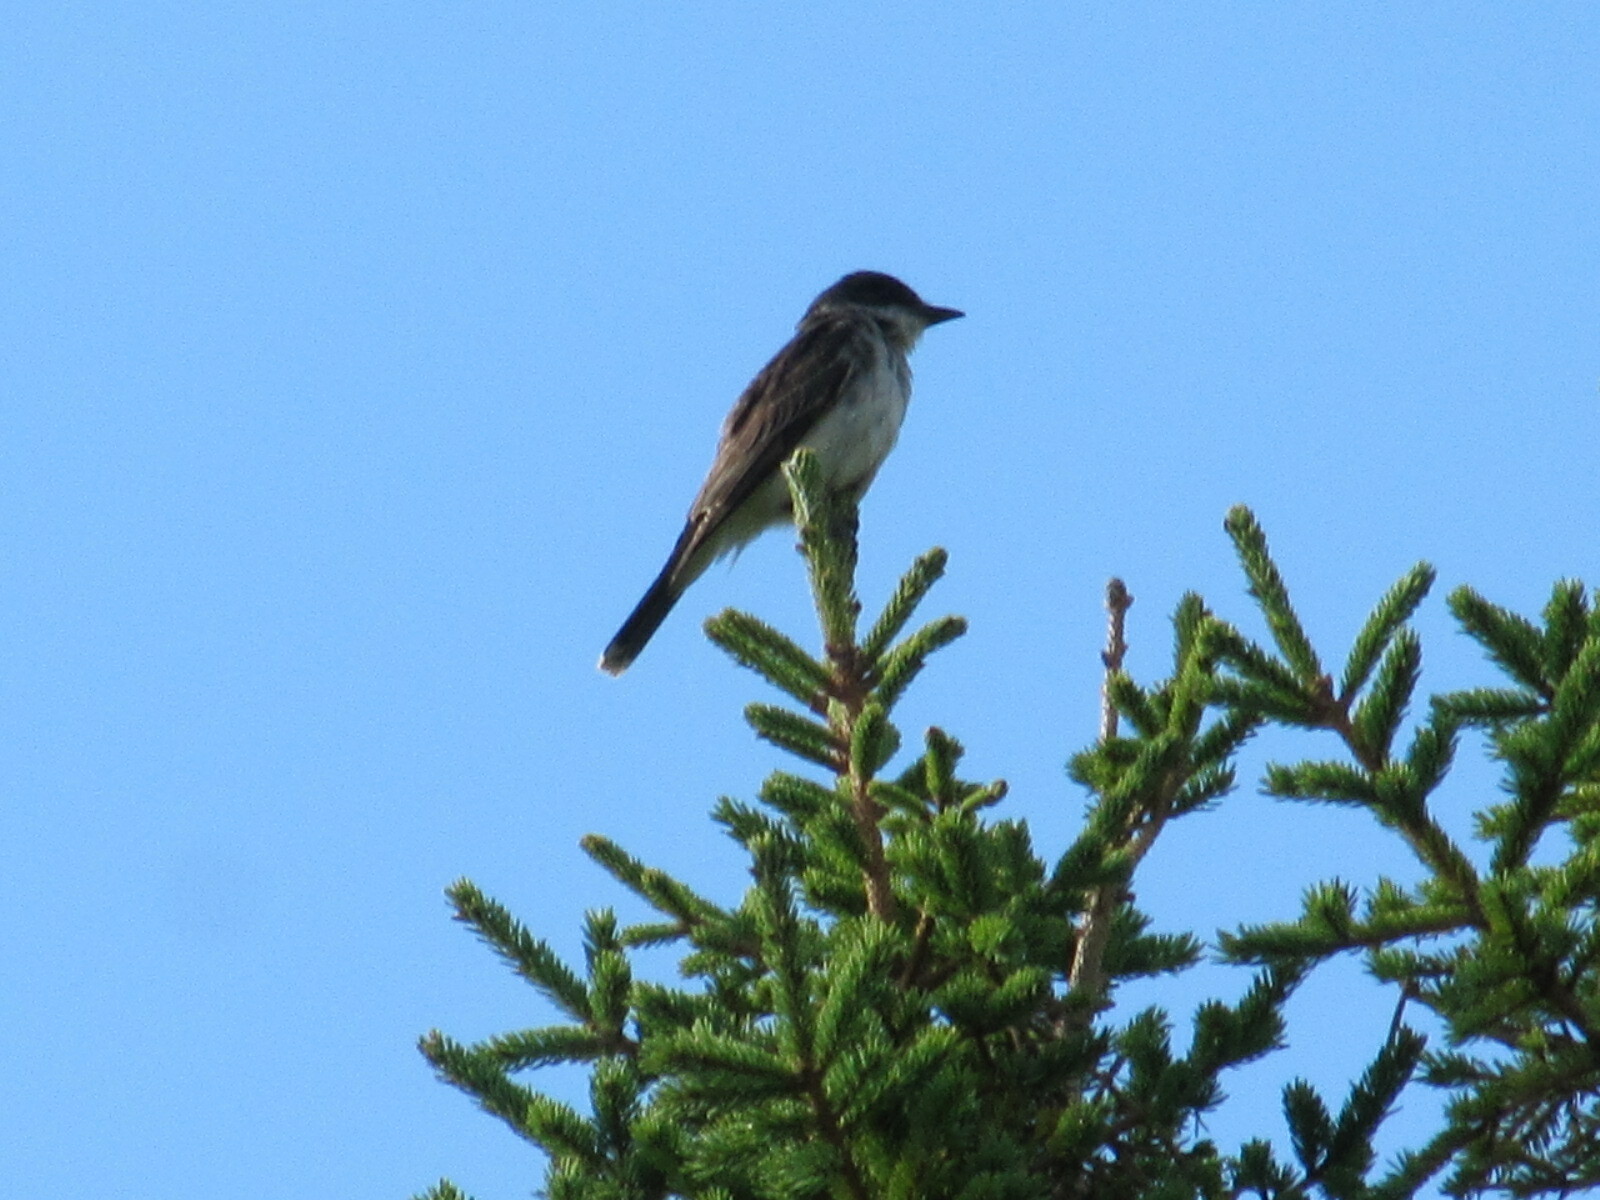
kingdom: Animalia
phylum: Chordata
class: Aves
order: Passeriformes
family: Tyrannidae
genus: Tyrannus
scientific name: Tyrannus tyrannus
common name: Eastern kingbird
